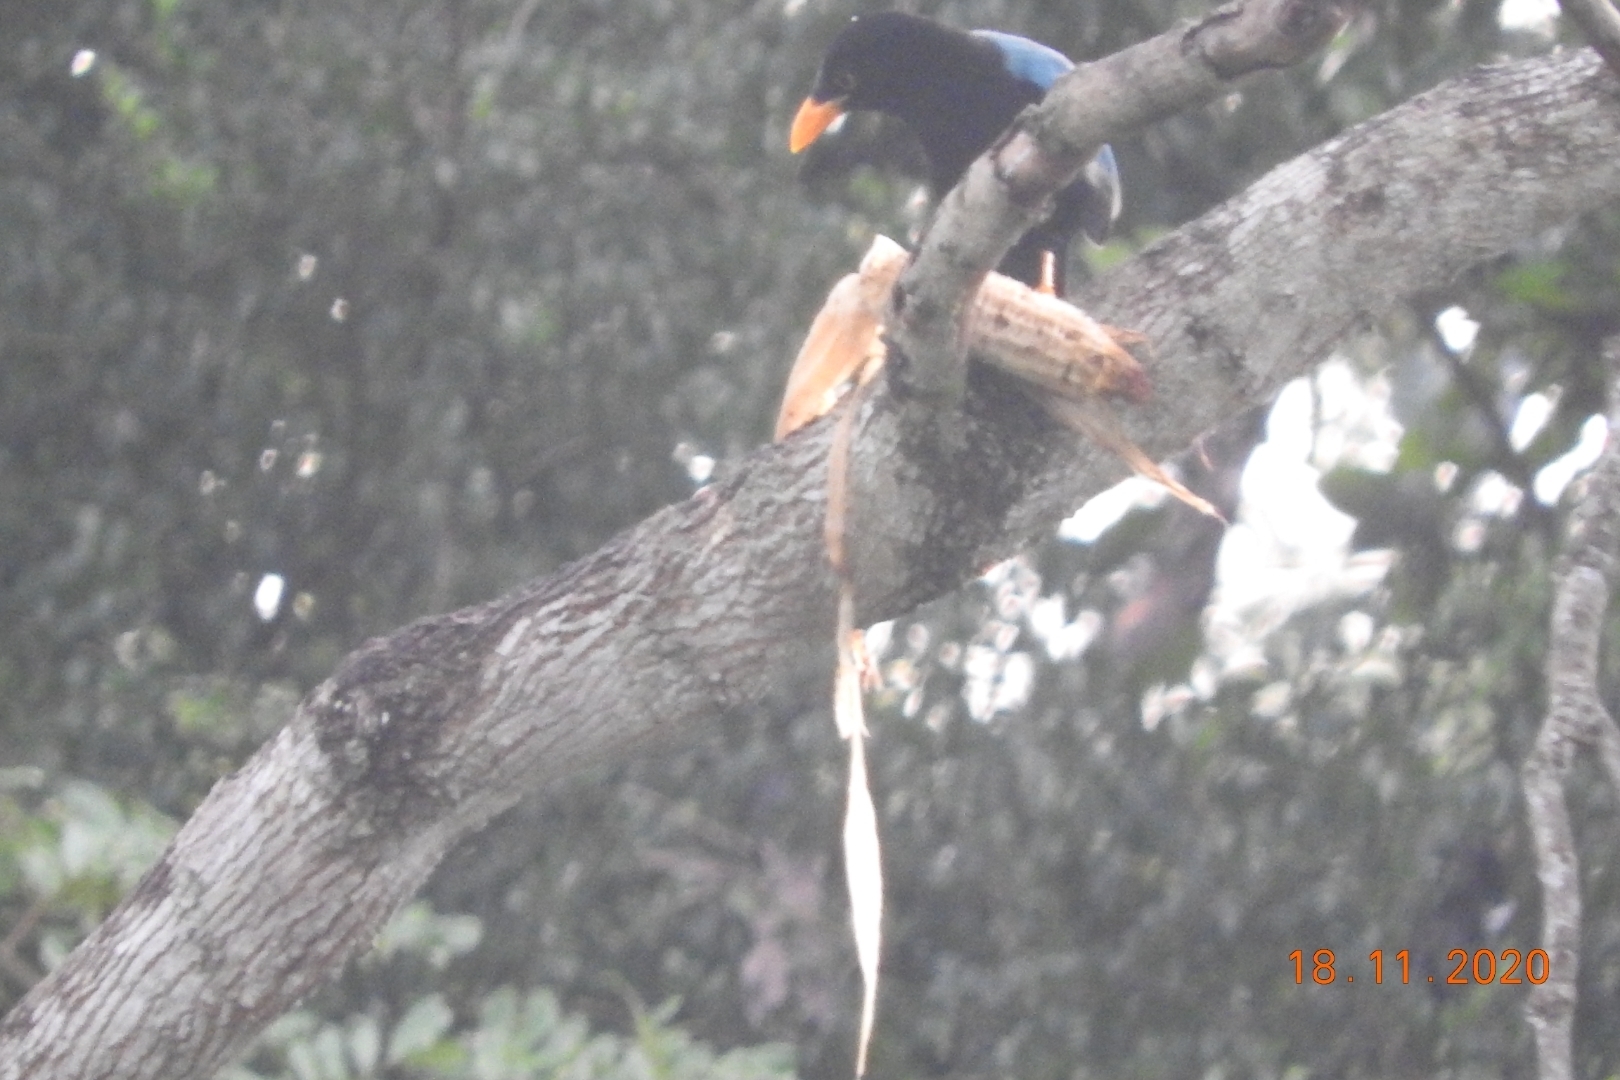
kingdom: Animalia
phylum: Chordata
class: Aves
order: Passeriformes
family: Corvidae
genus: Cyanocorax
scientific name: Cyanocorax yucatanicus
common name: Yucatan jay
